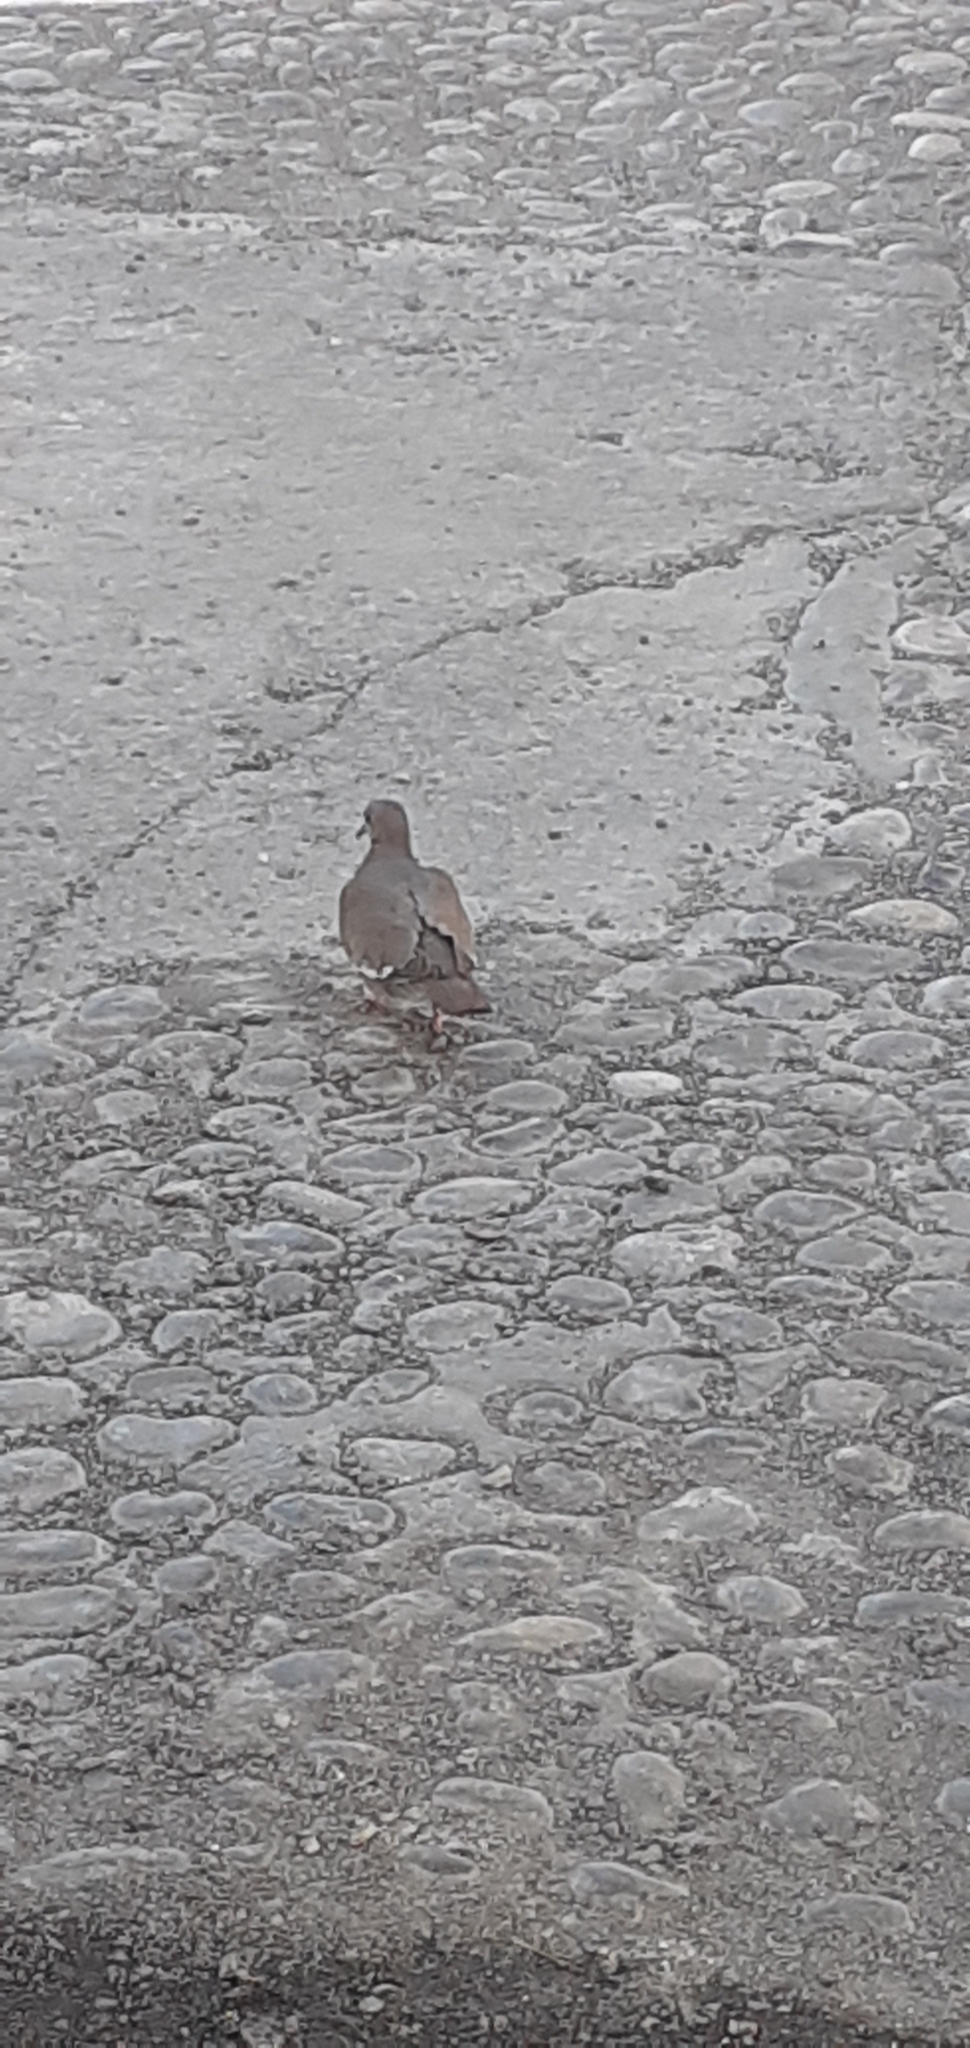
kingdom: Animalia
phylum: Chordata
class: Aves
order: Columbiformes
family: Columbidae
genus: Zenaida
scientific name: Zenaida asiatica
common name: White-winged dove
